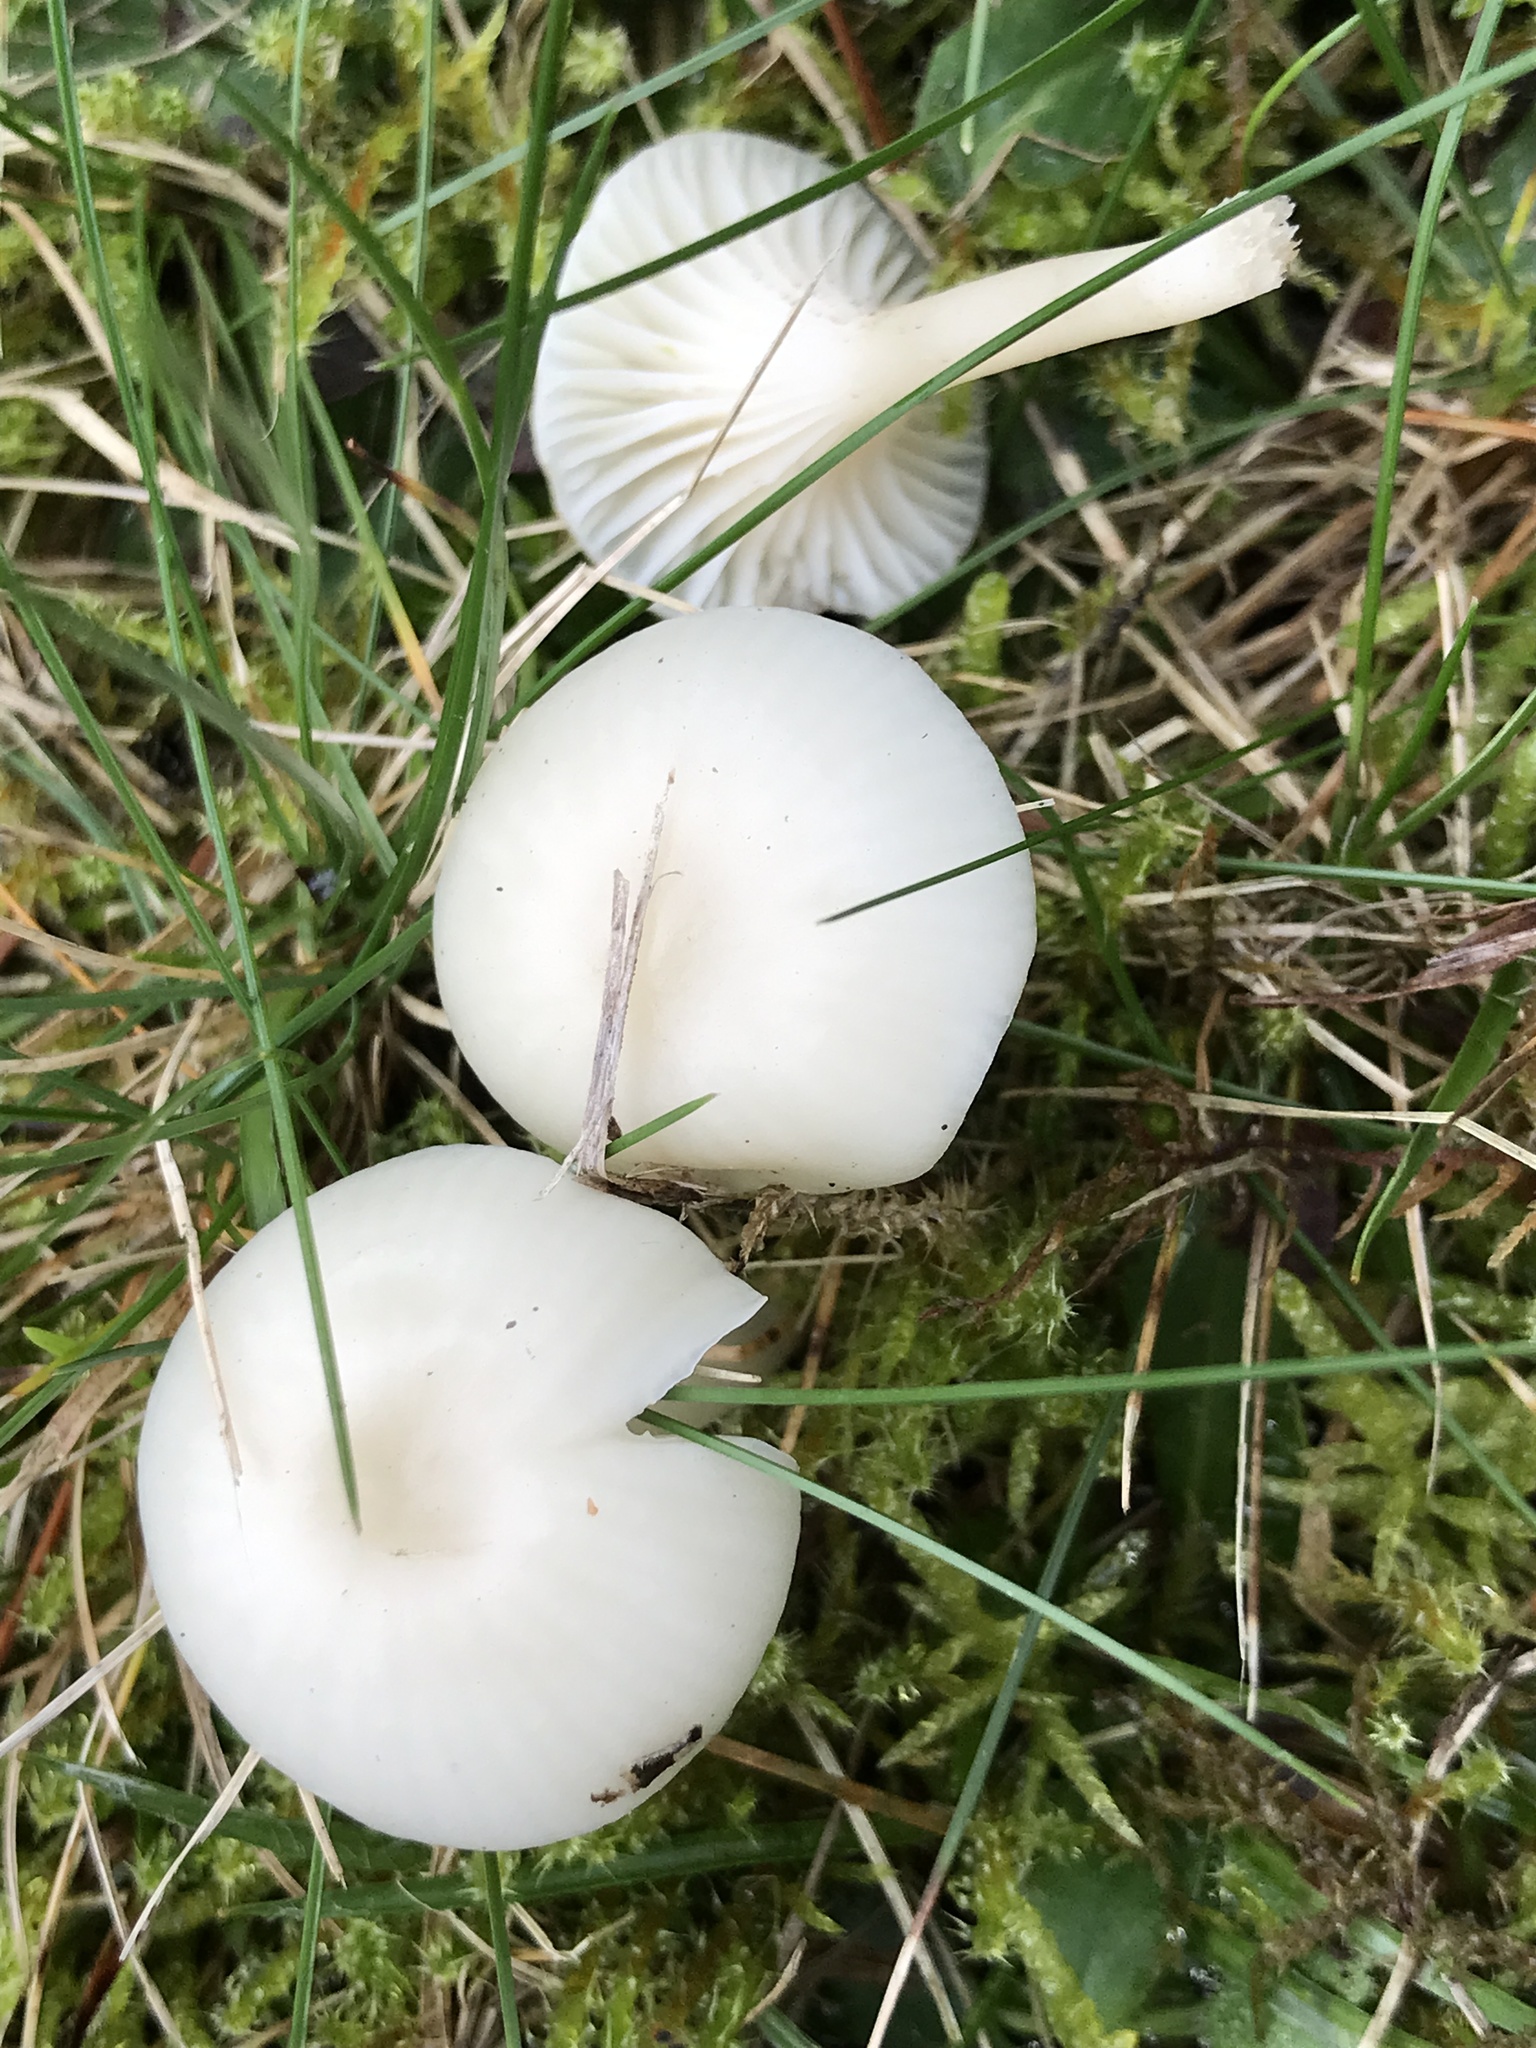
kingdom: Fungi
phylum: Basidiomycota
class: Agaricomycetes
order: Agaricales
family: Hygrophoraceae
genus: Cuphophyllus
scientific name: Cuphophyllus virgineus
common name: Snowy waxcap
